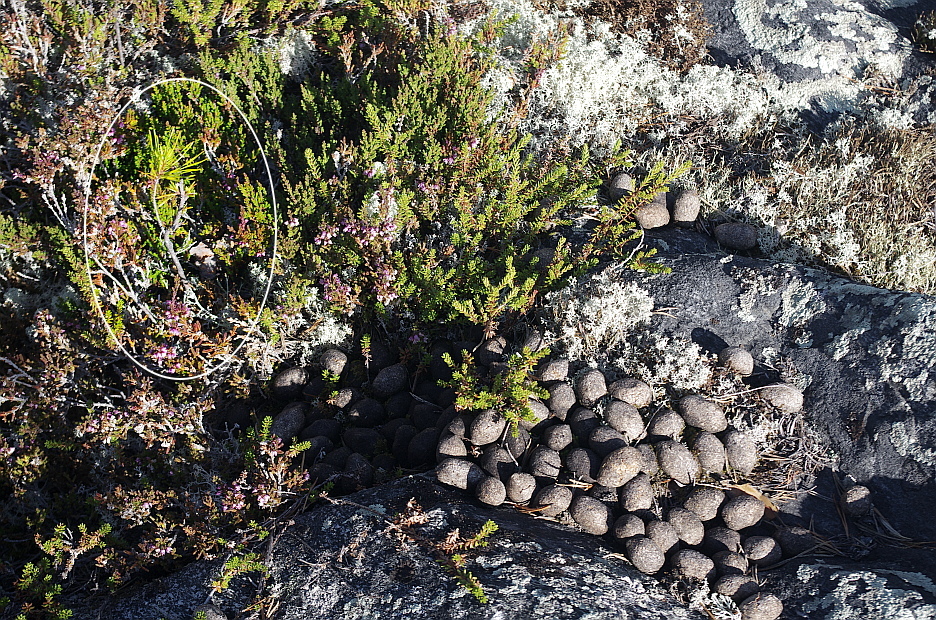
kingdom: Plantae
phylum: Tracheophyta
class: Pinopsida
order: Pinales
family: Pinaceae
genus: Pinus
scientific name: Pinus sylvestris
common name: Scots pine
